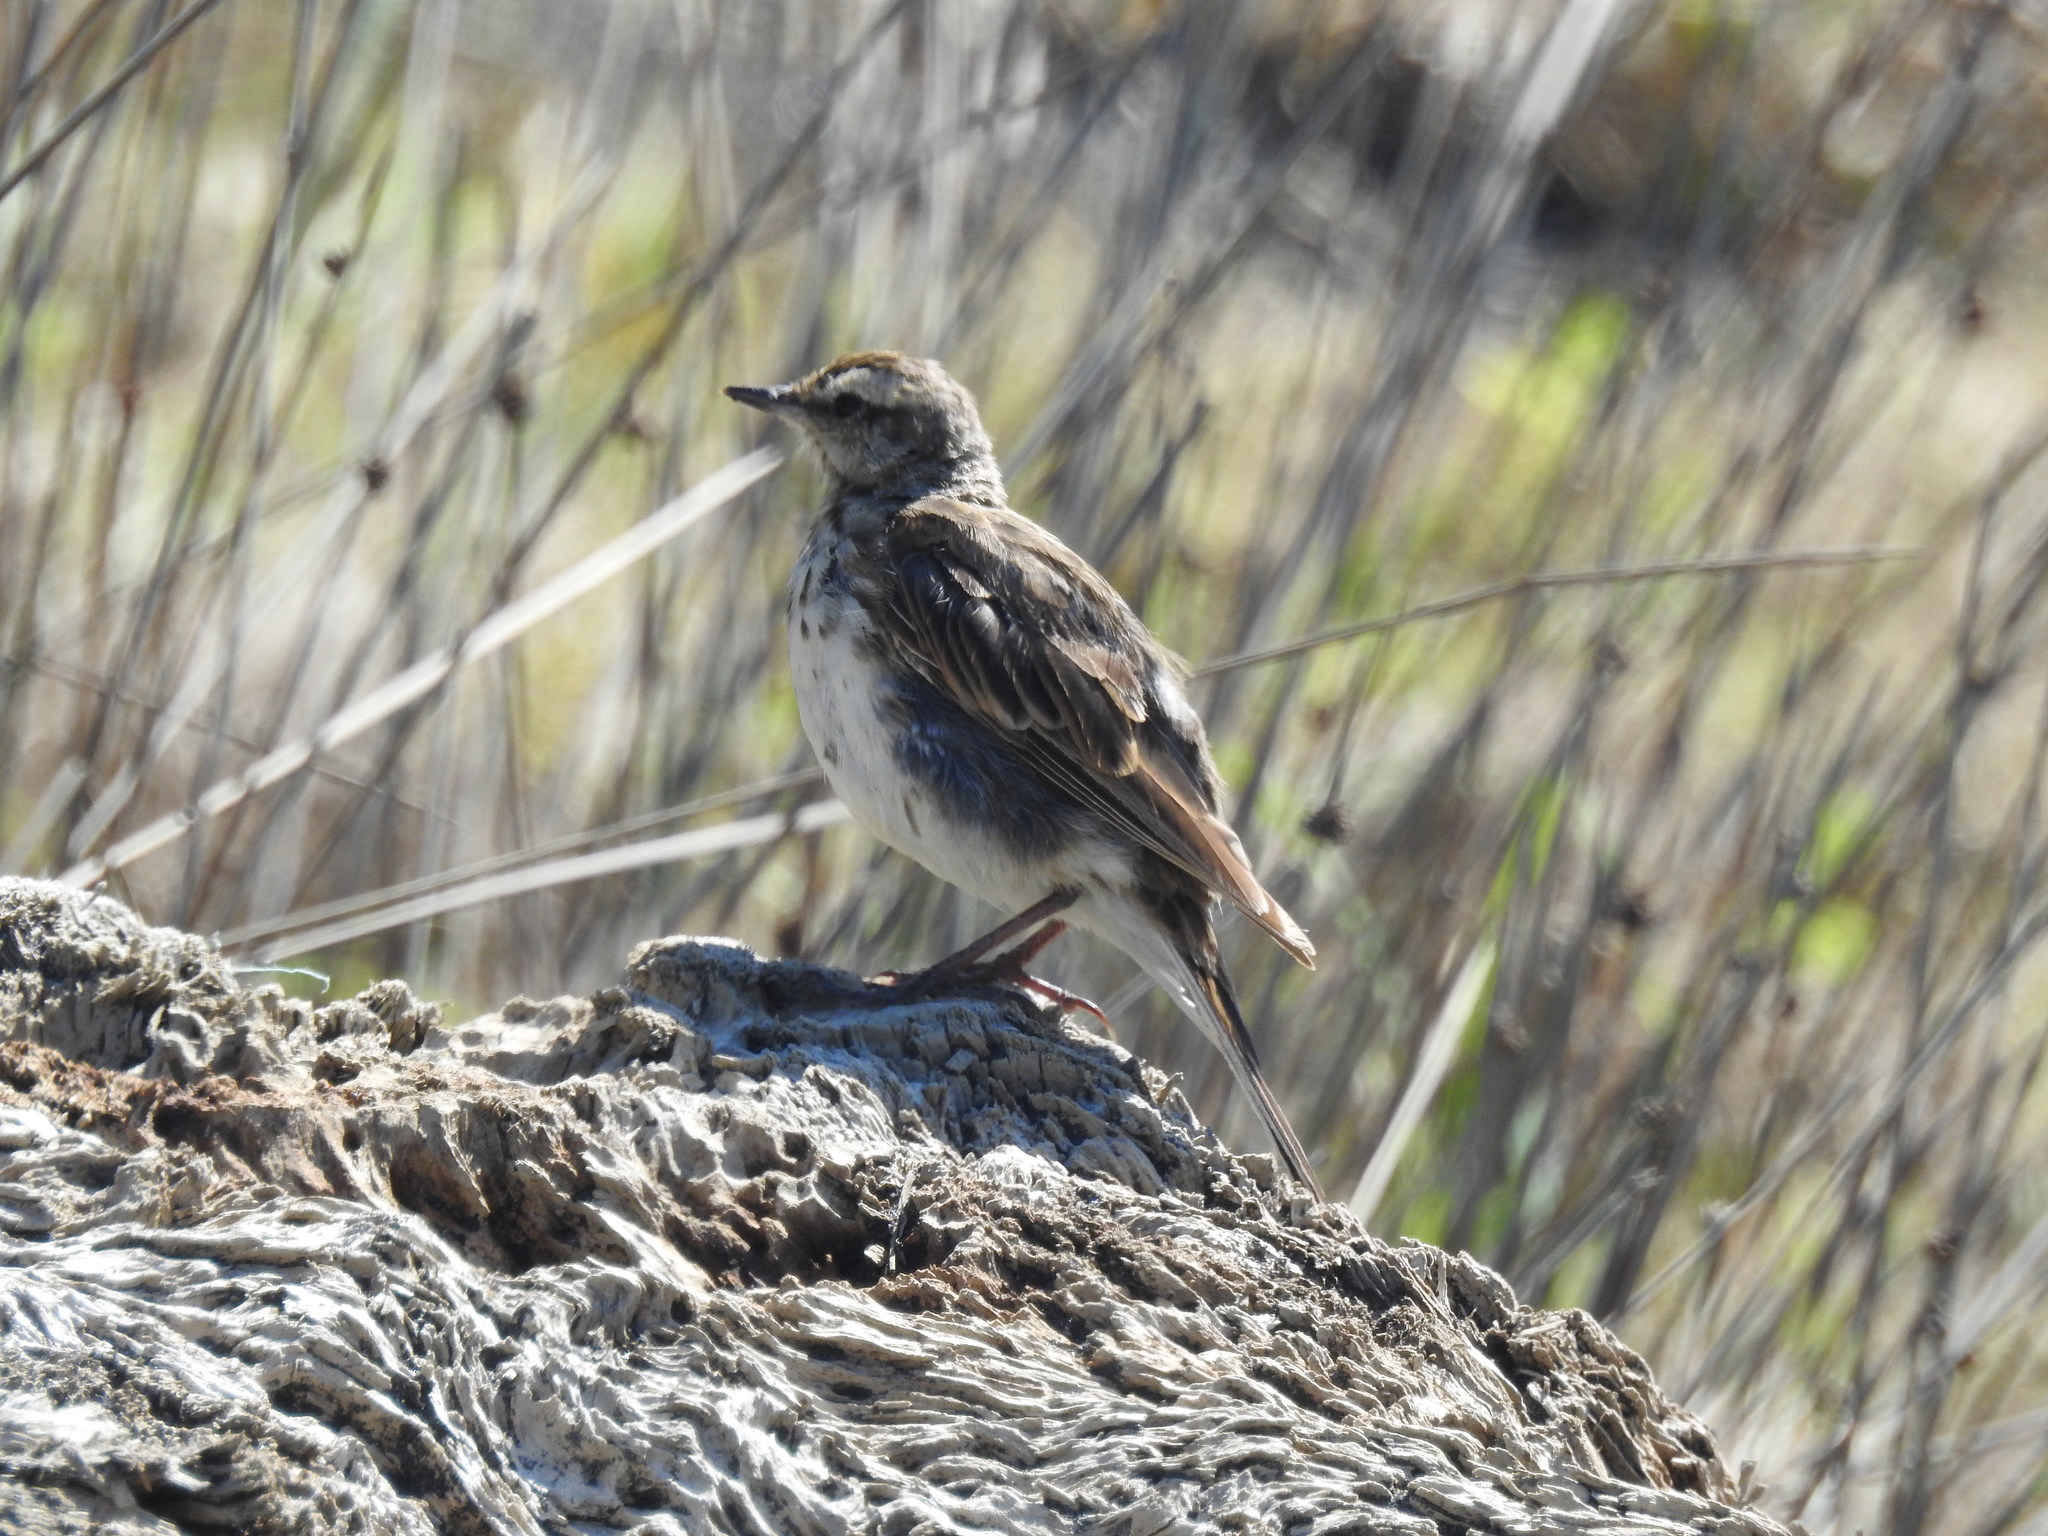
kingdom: Animalia
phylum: Chordata
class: Aves
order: Passeriformes
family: Motacillidae
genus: Anthus
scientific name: Anthus novaeseelandiae
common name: New zealand pipit
